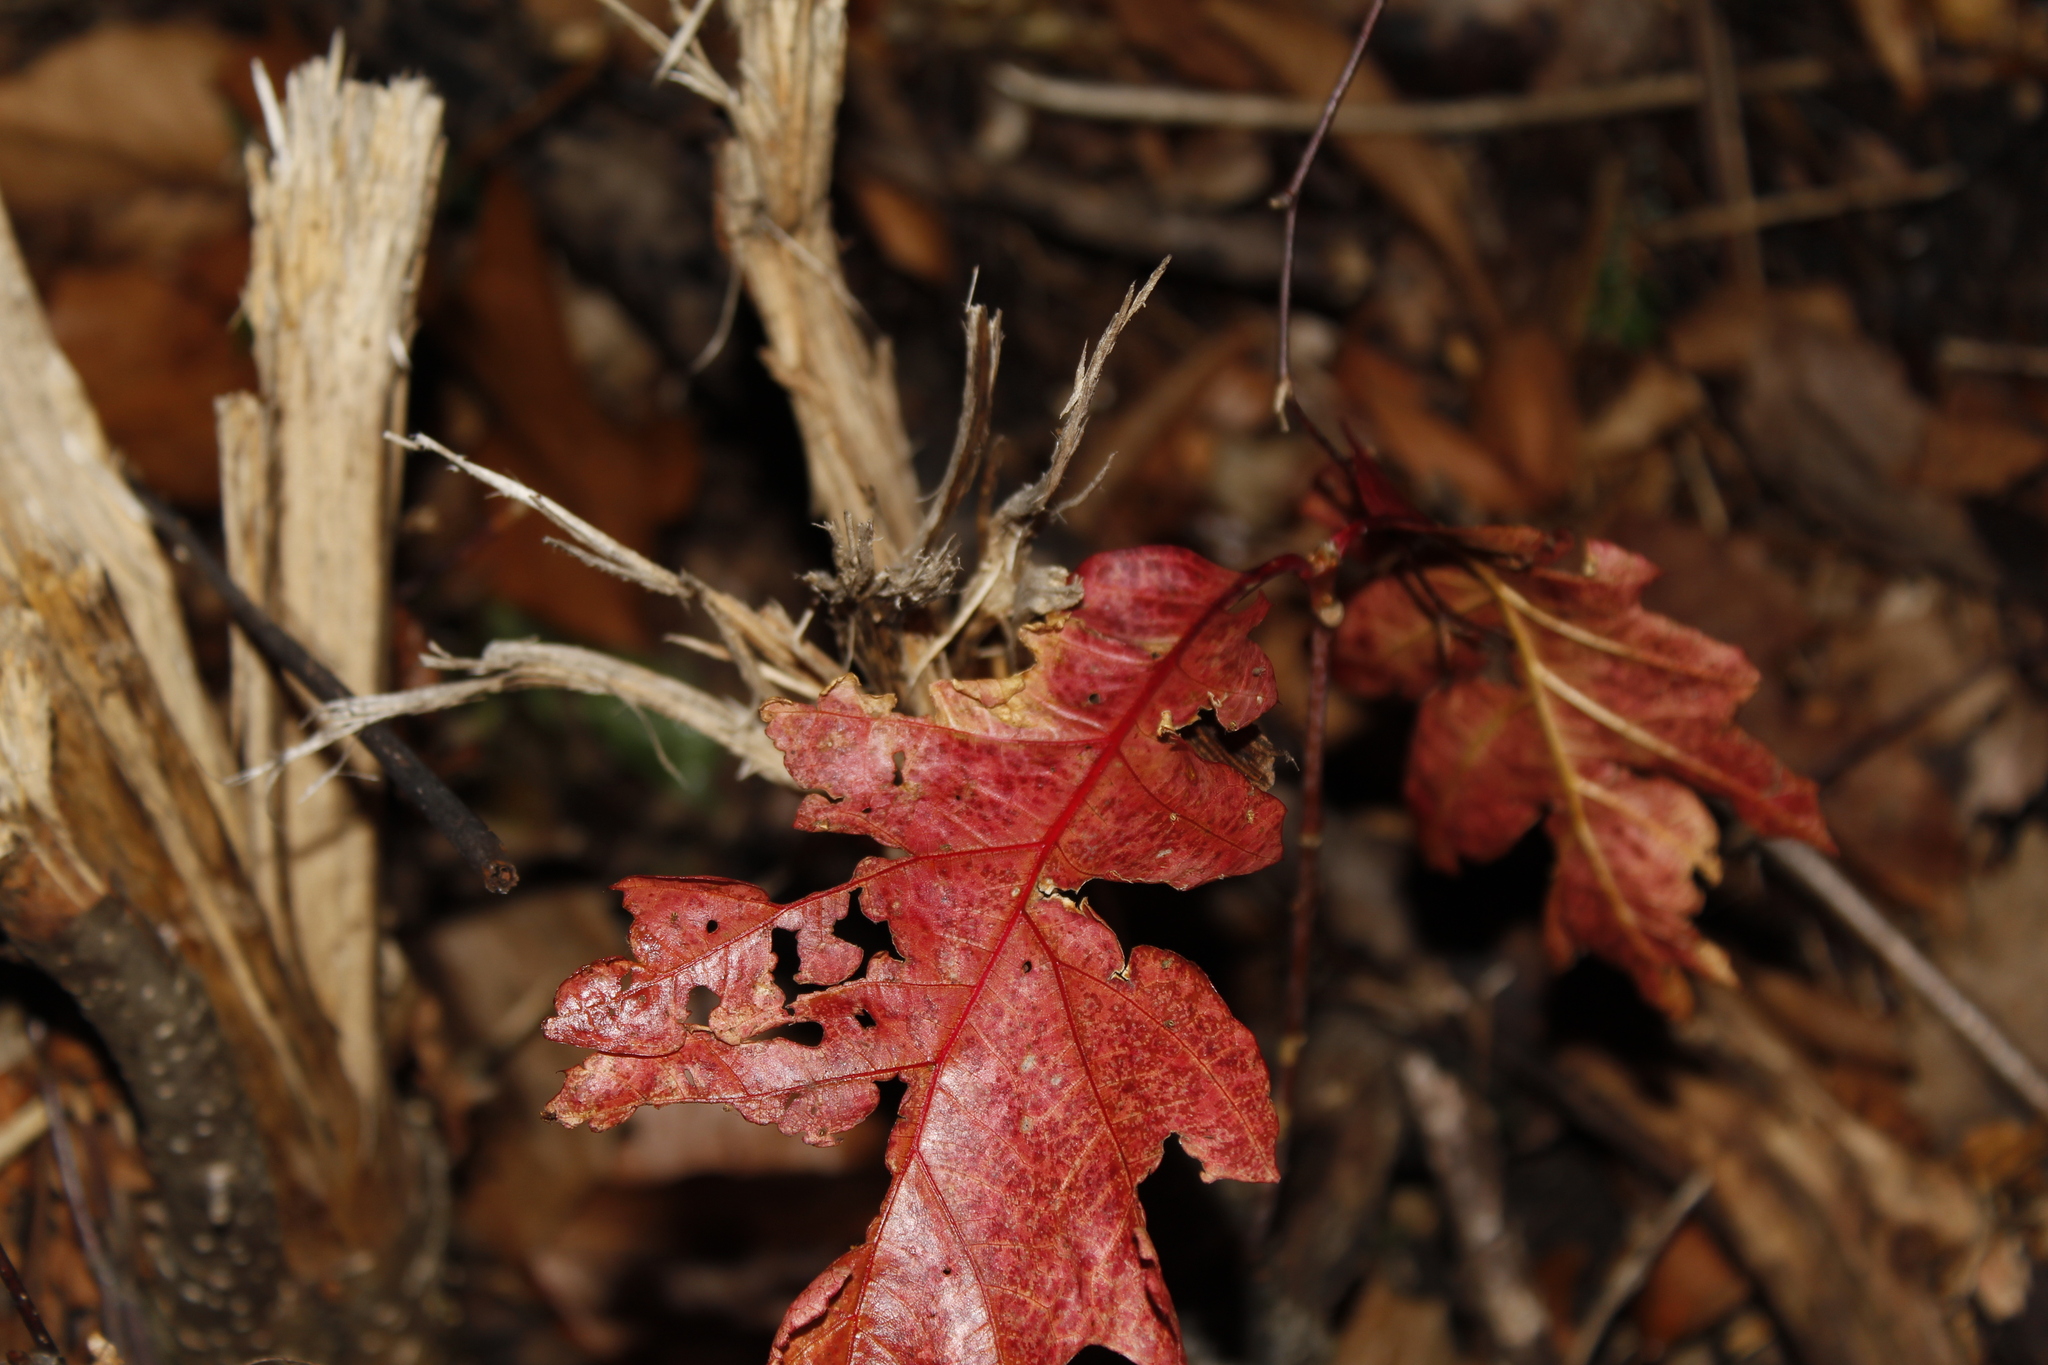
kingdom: Plantae
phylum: Tracheophyta
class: Magnoliopsida
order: Fagales
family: Fagaceae
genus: Quercus
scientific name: Quercus rubra
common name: Red oak
